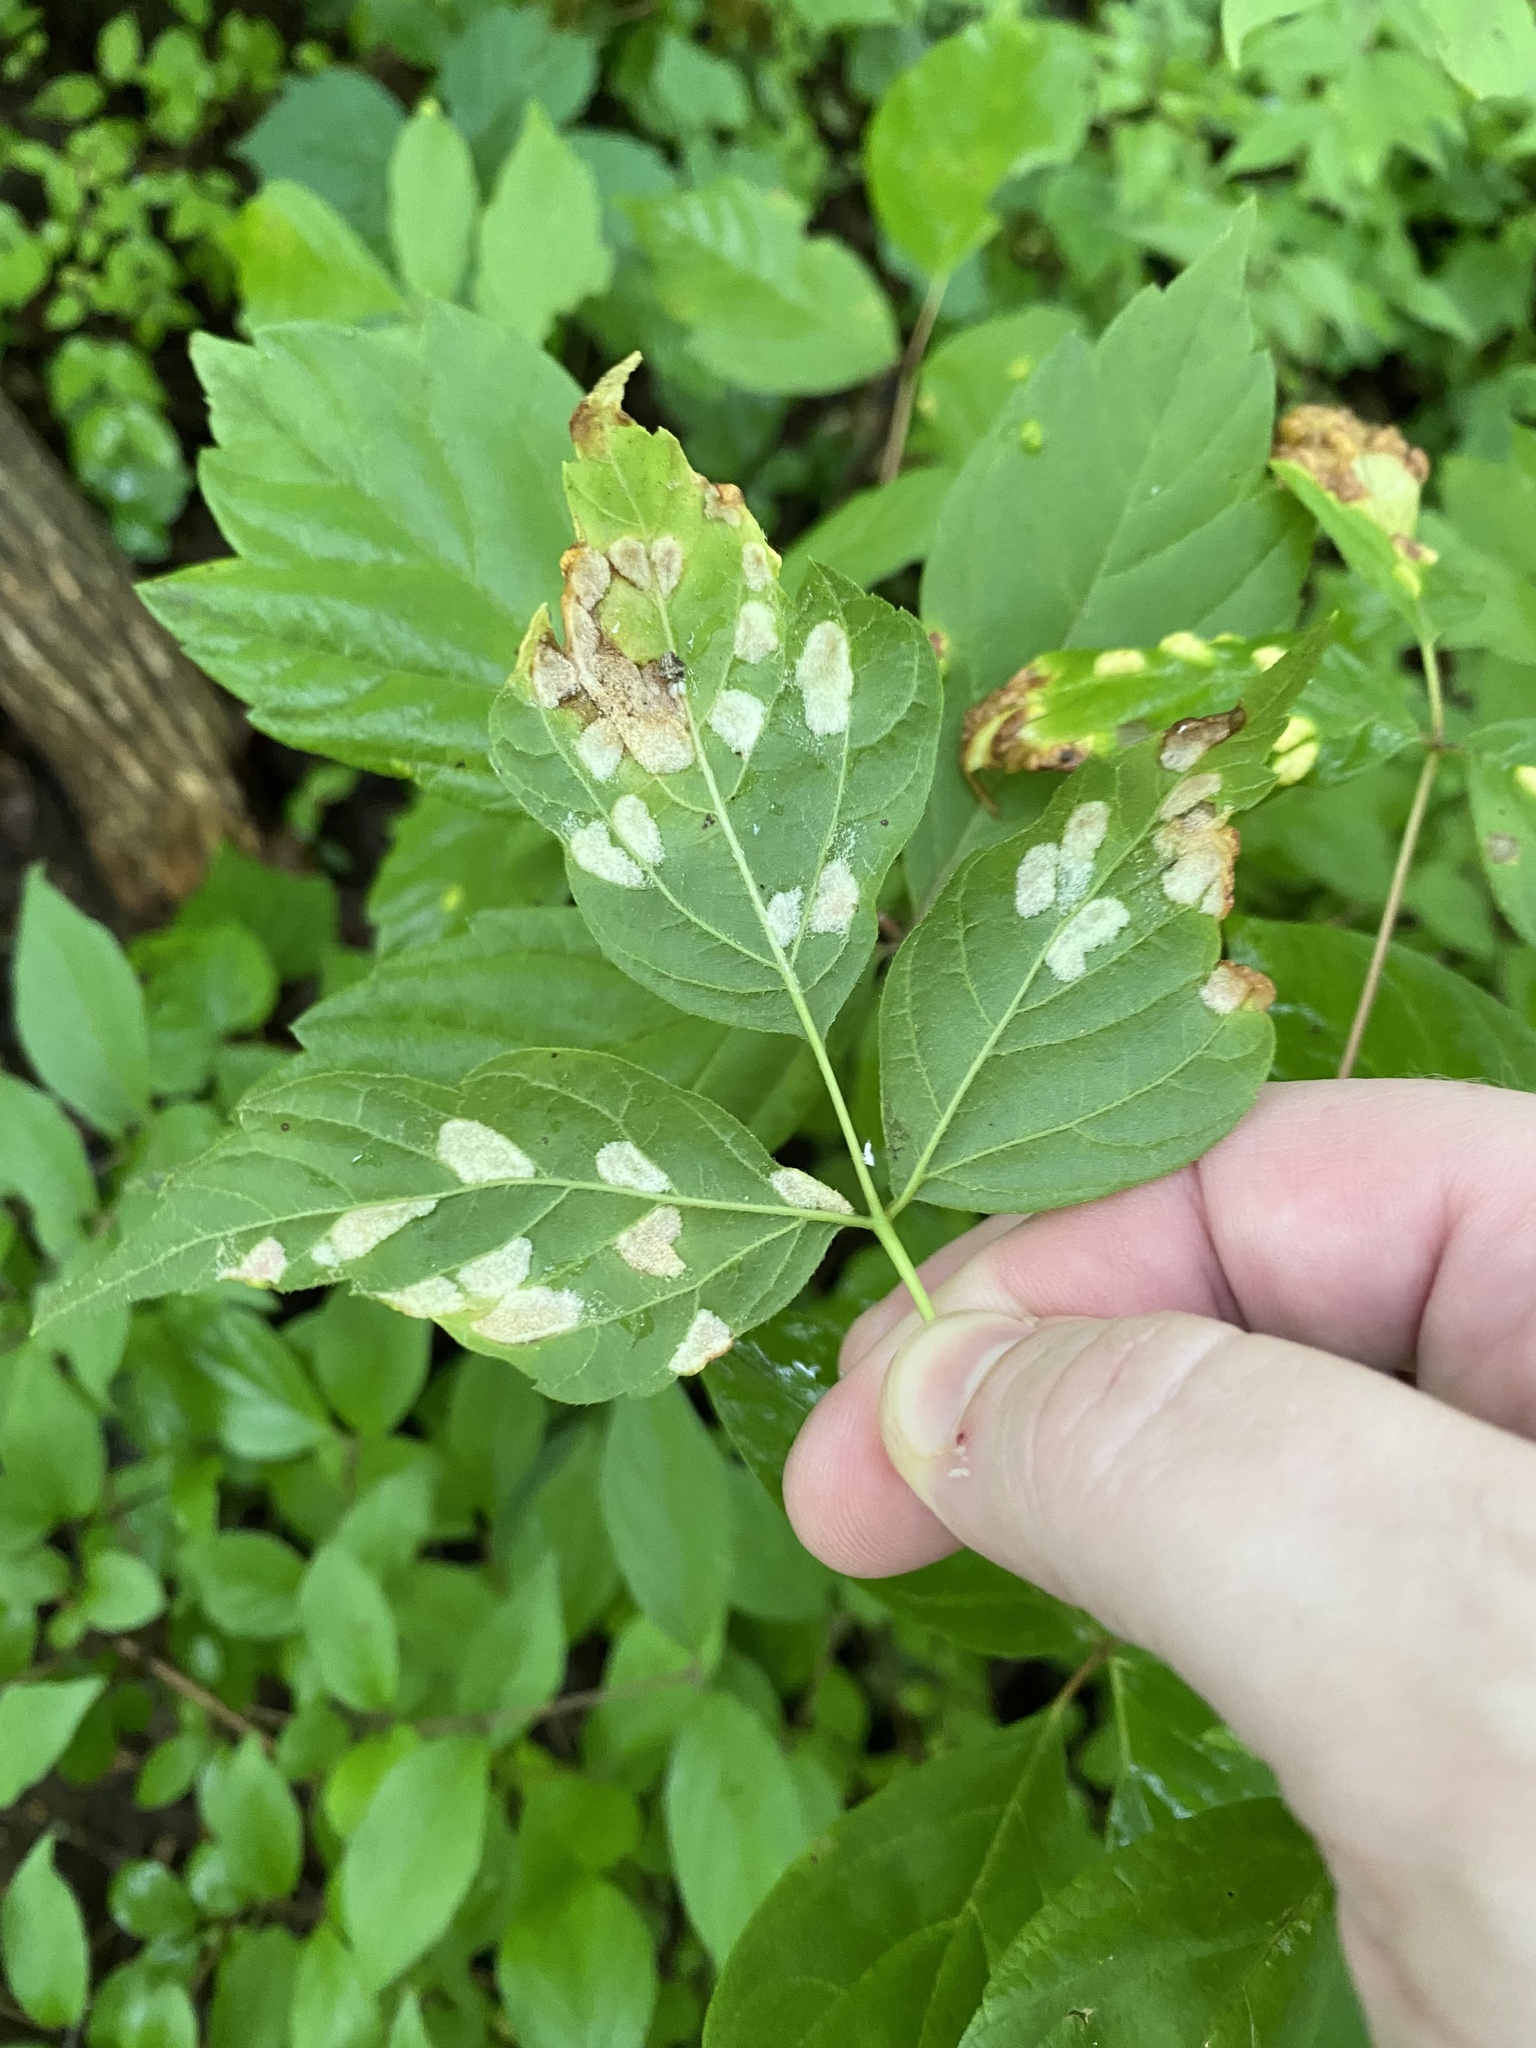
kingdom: Animalia
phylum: Arthropoda
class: Arachnida
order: Trombidiformes
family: Eriophyidae
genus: Aceria
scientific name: Aceria
